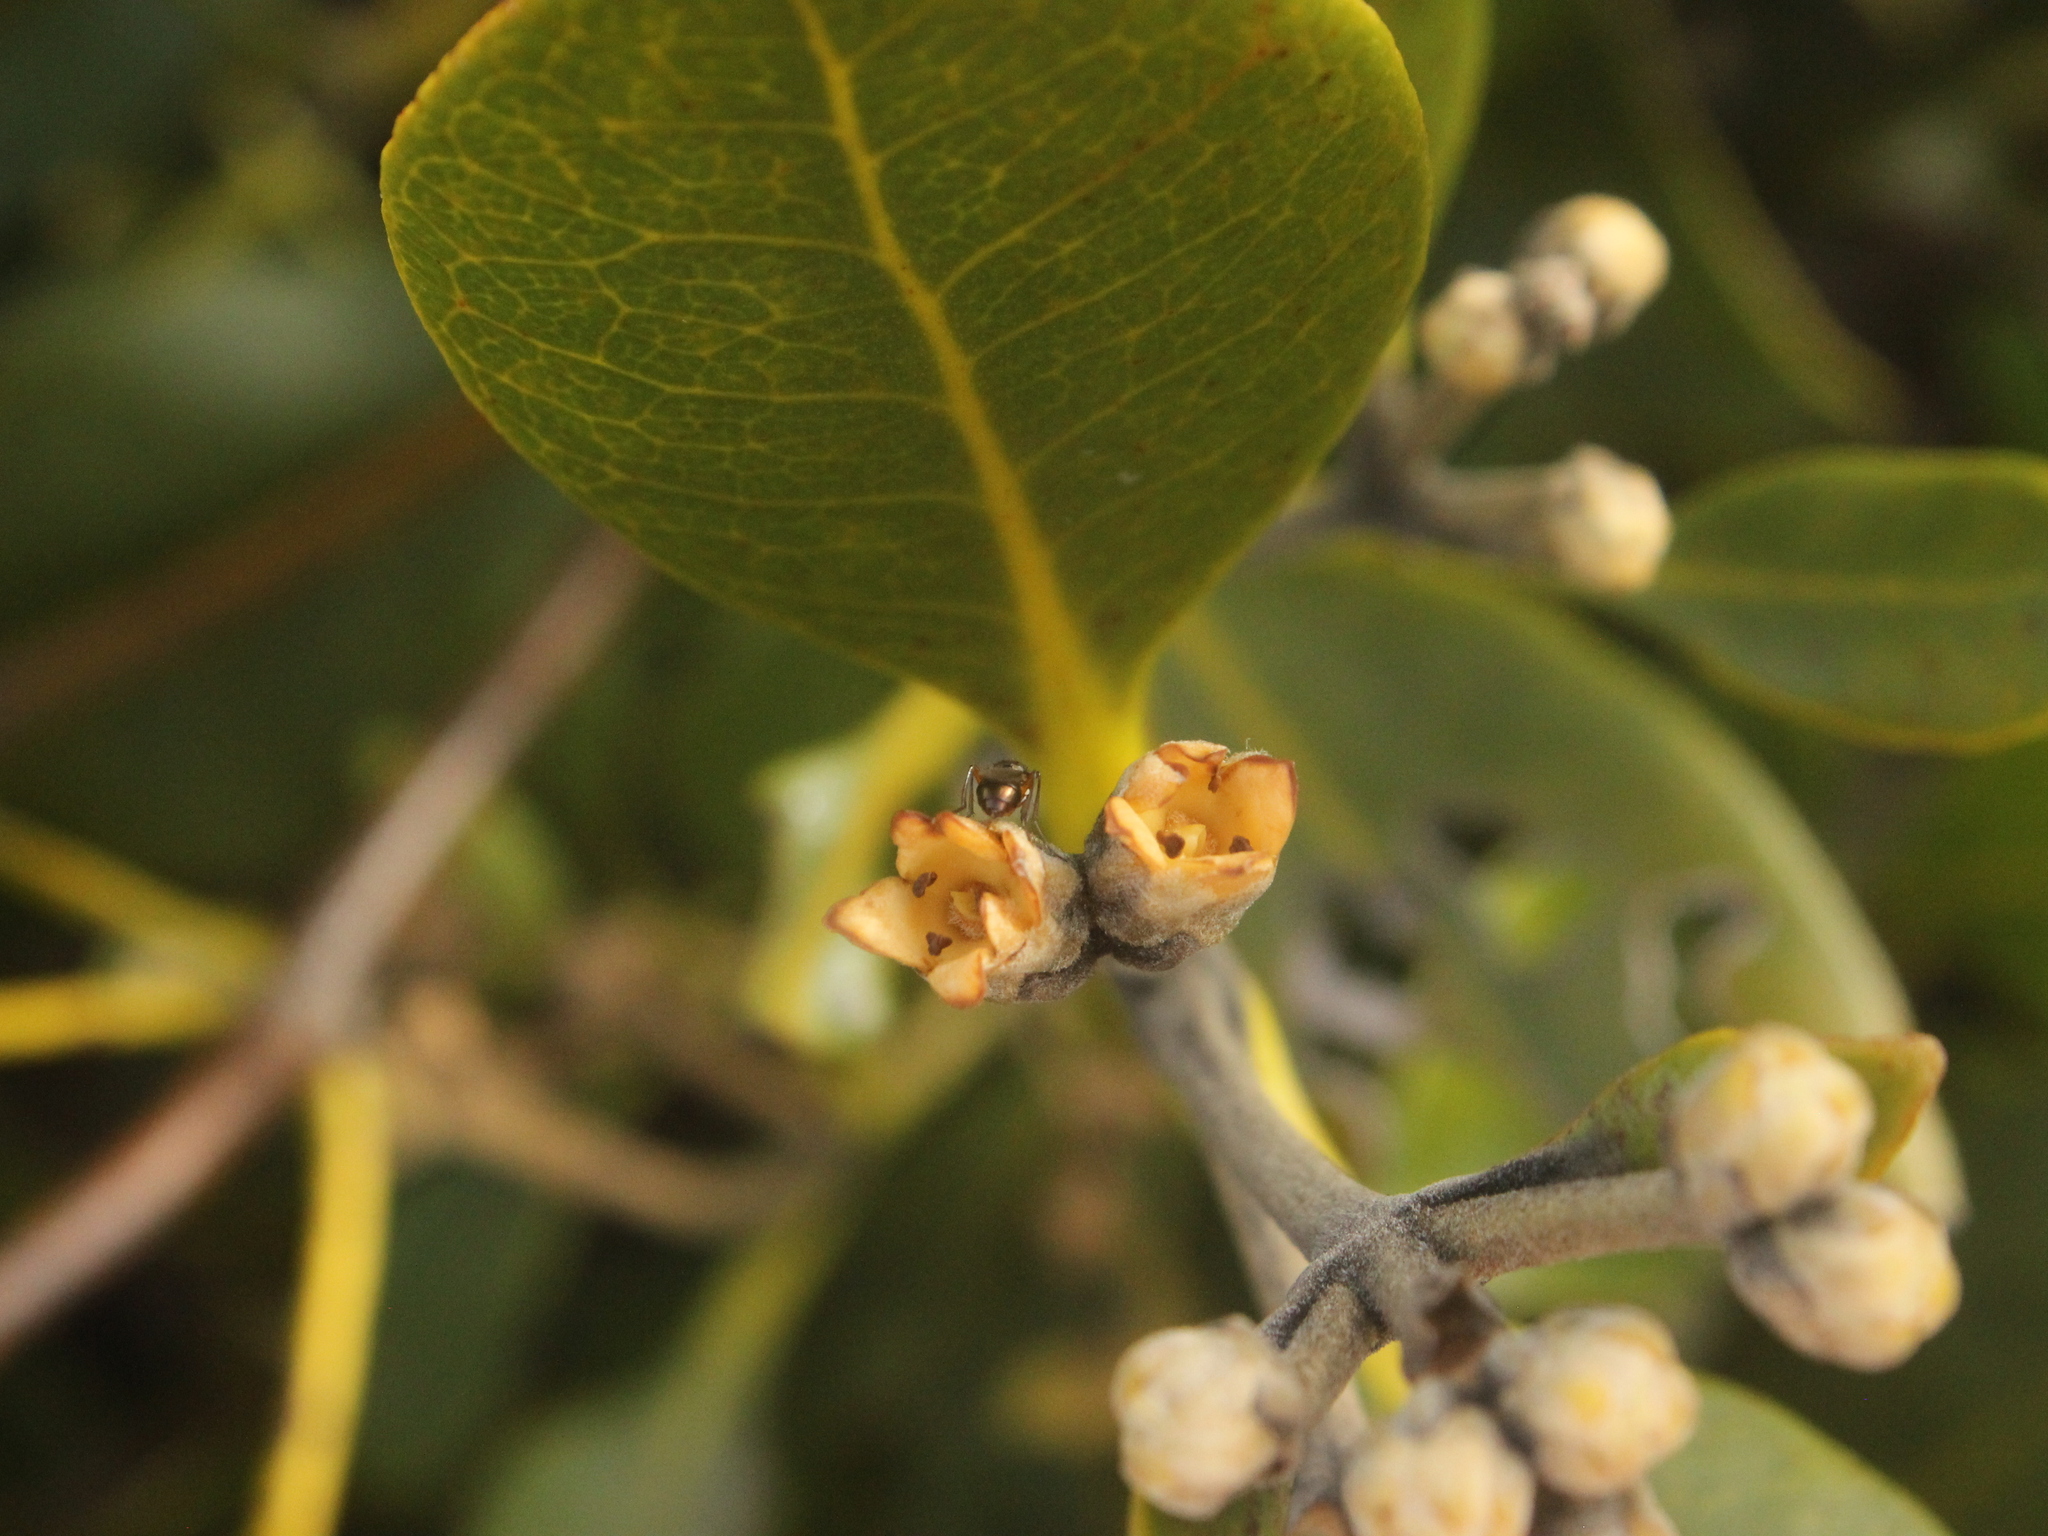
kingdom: Plantae
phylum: Tracheophyta
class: Magnoliopsida
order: Lamiales
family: Acanthaceae
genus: Avicennia
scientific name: Avicennia marina
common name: Gray mangrove
